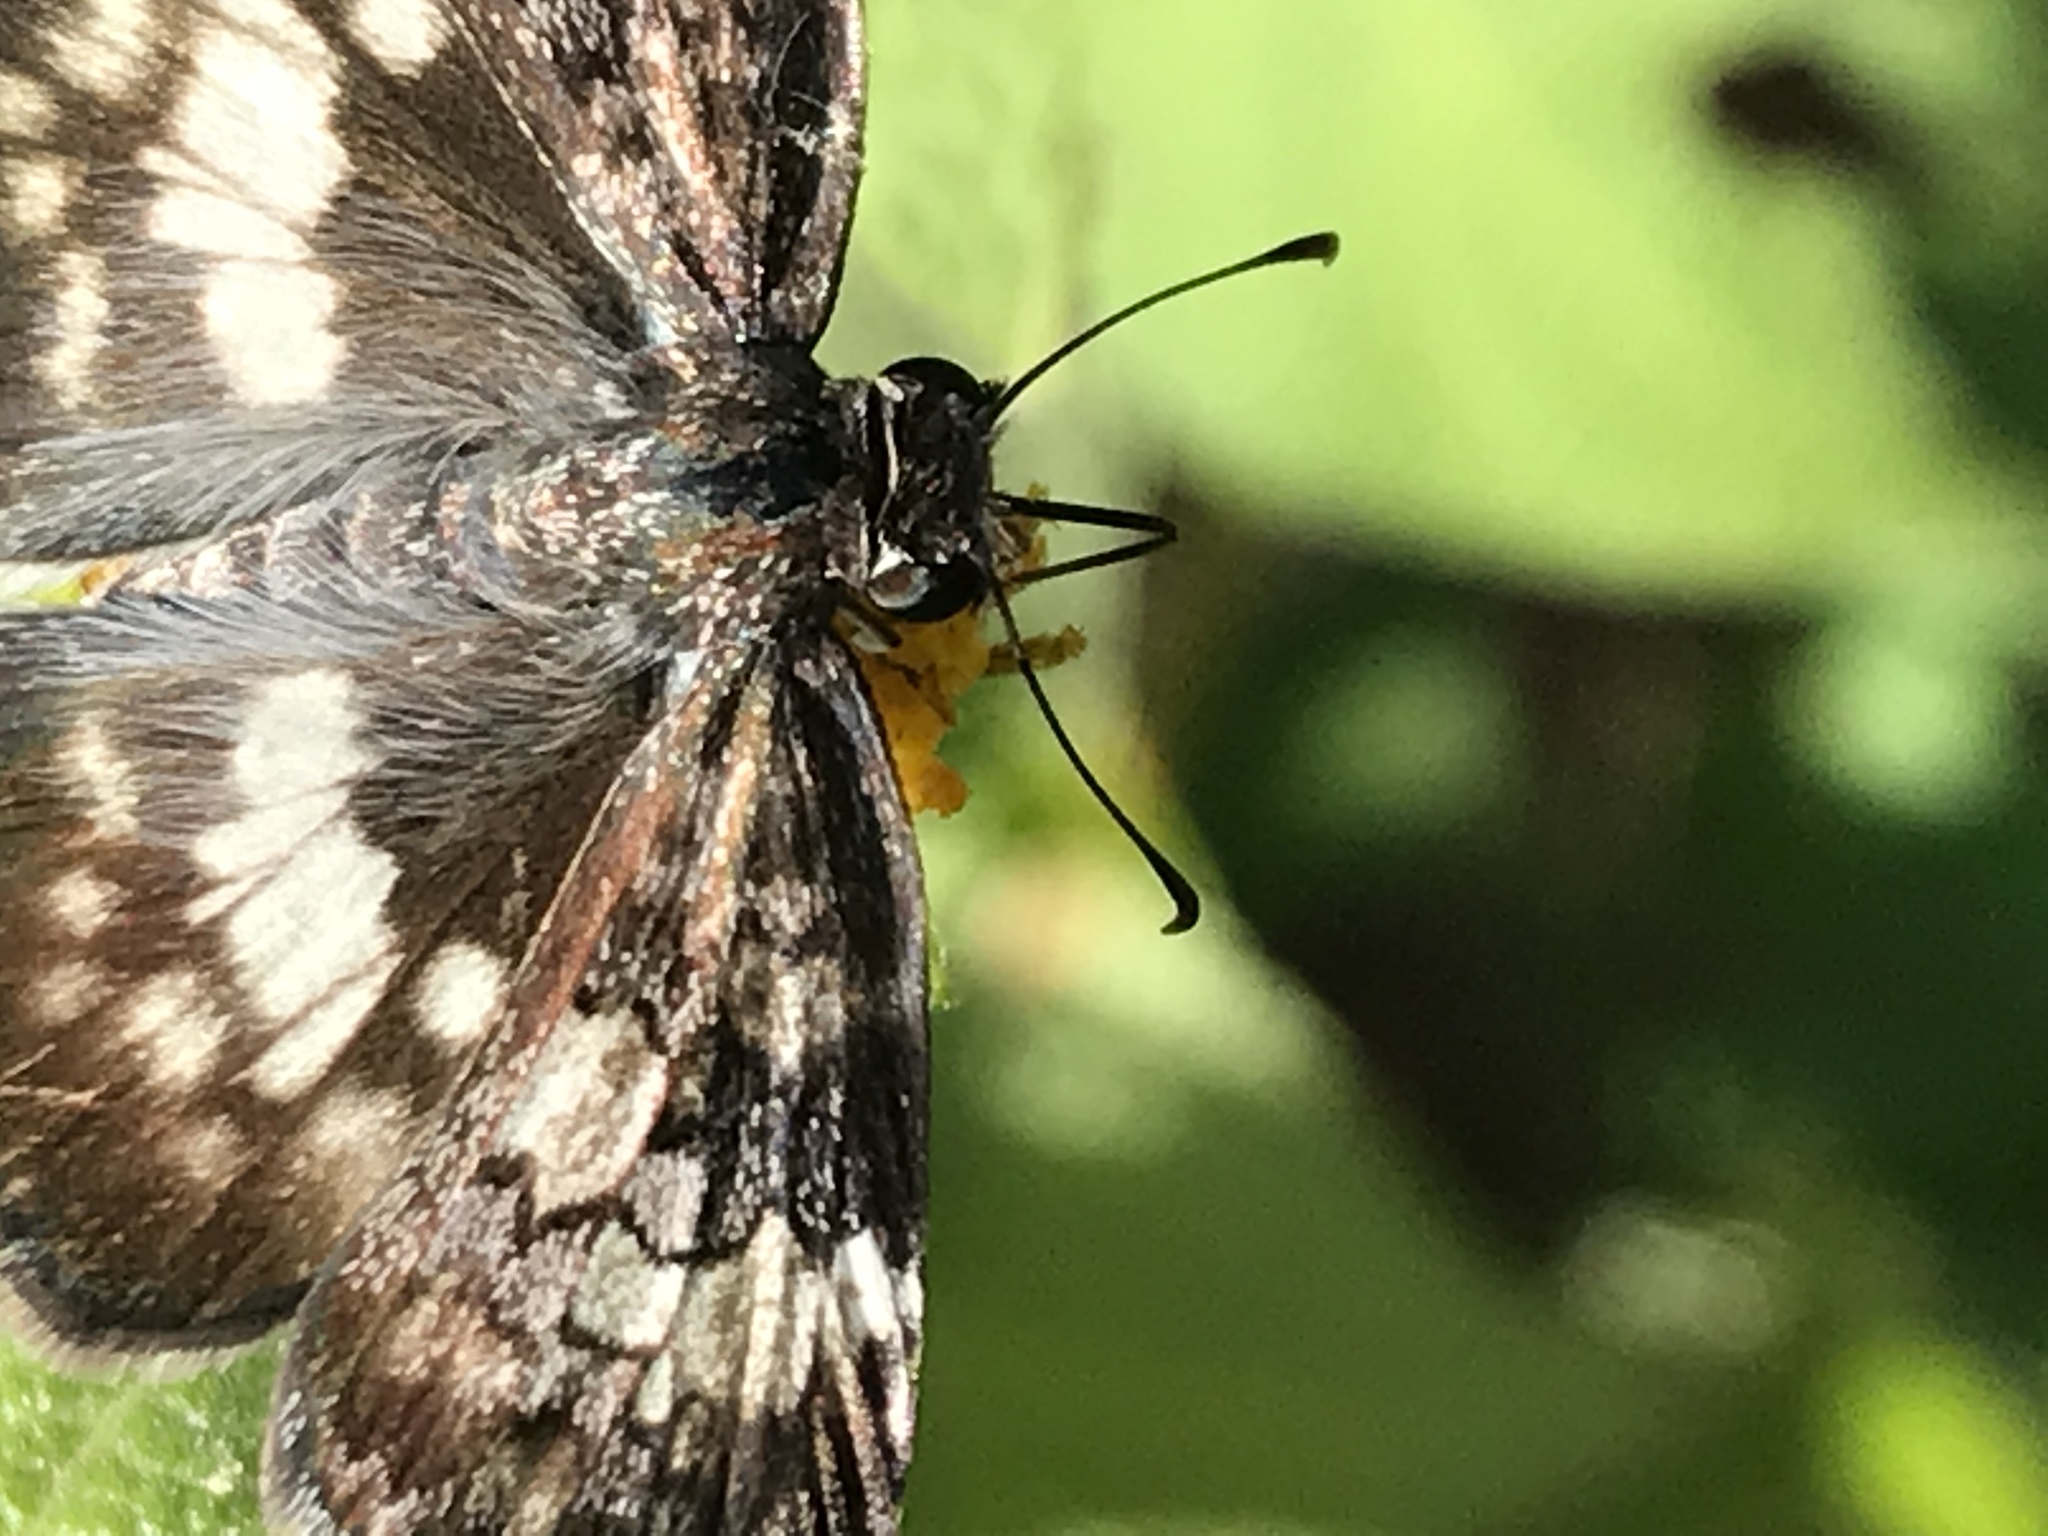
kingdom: Animalia
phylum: Arthropoda
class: Insecta
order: Lepidoptera
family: Hesperiidae
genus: Chiothion
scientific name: Chiothion georgina
